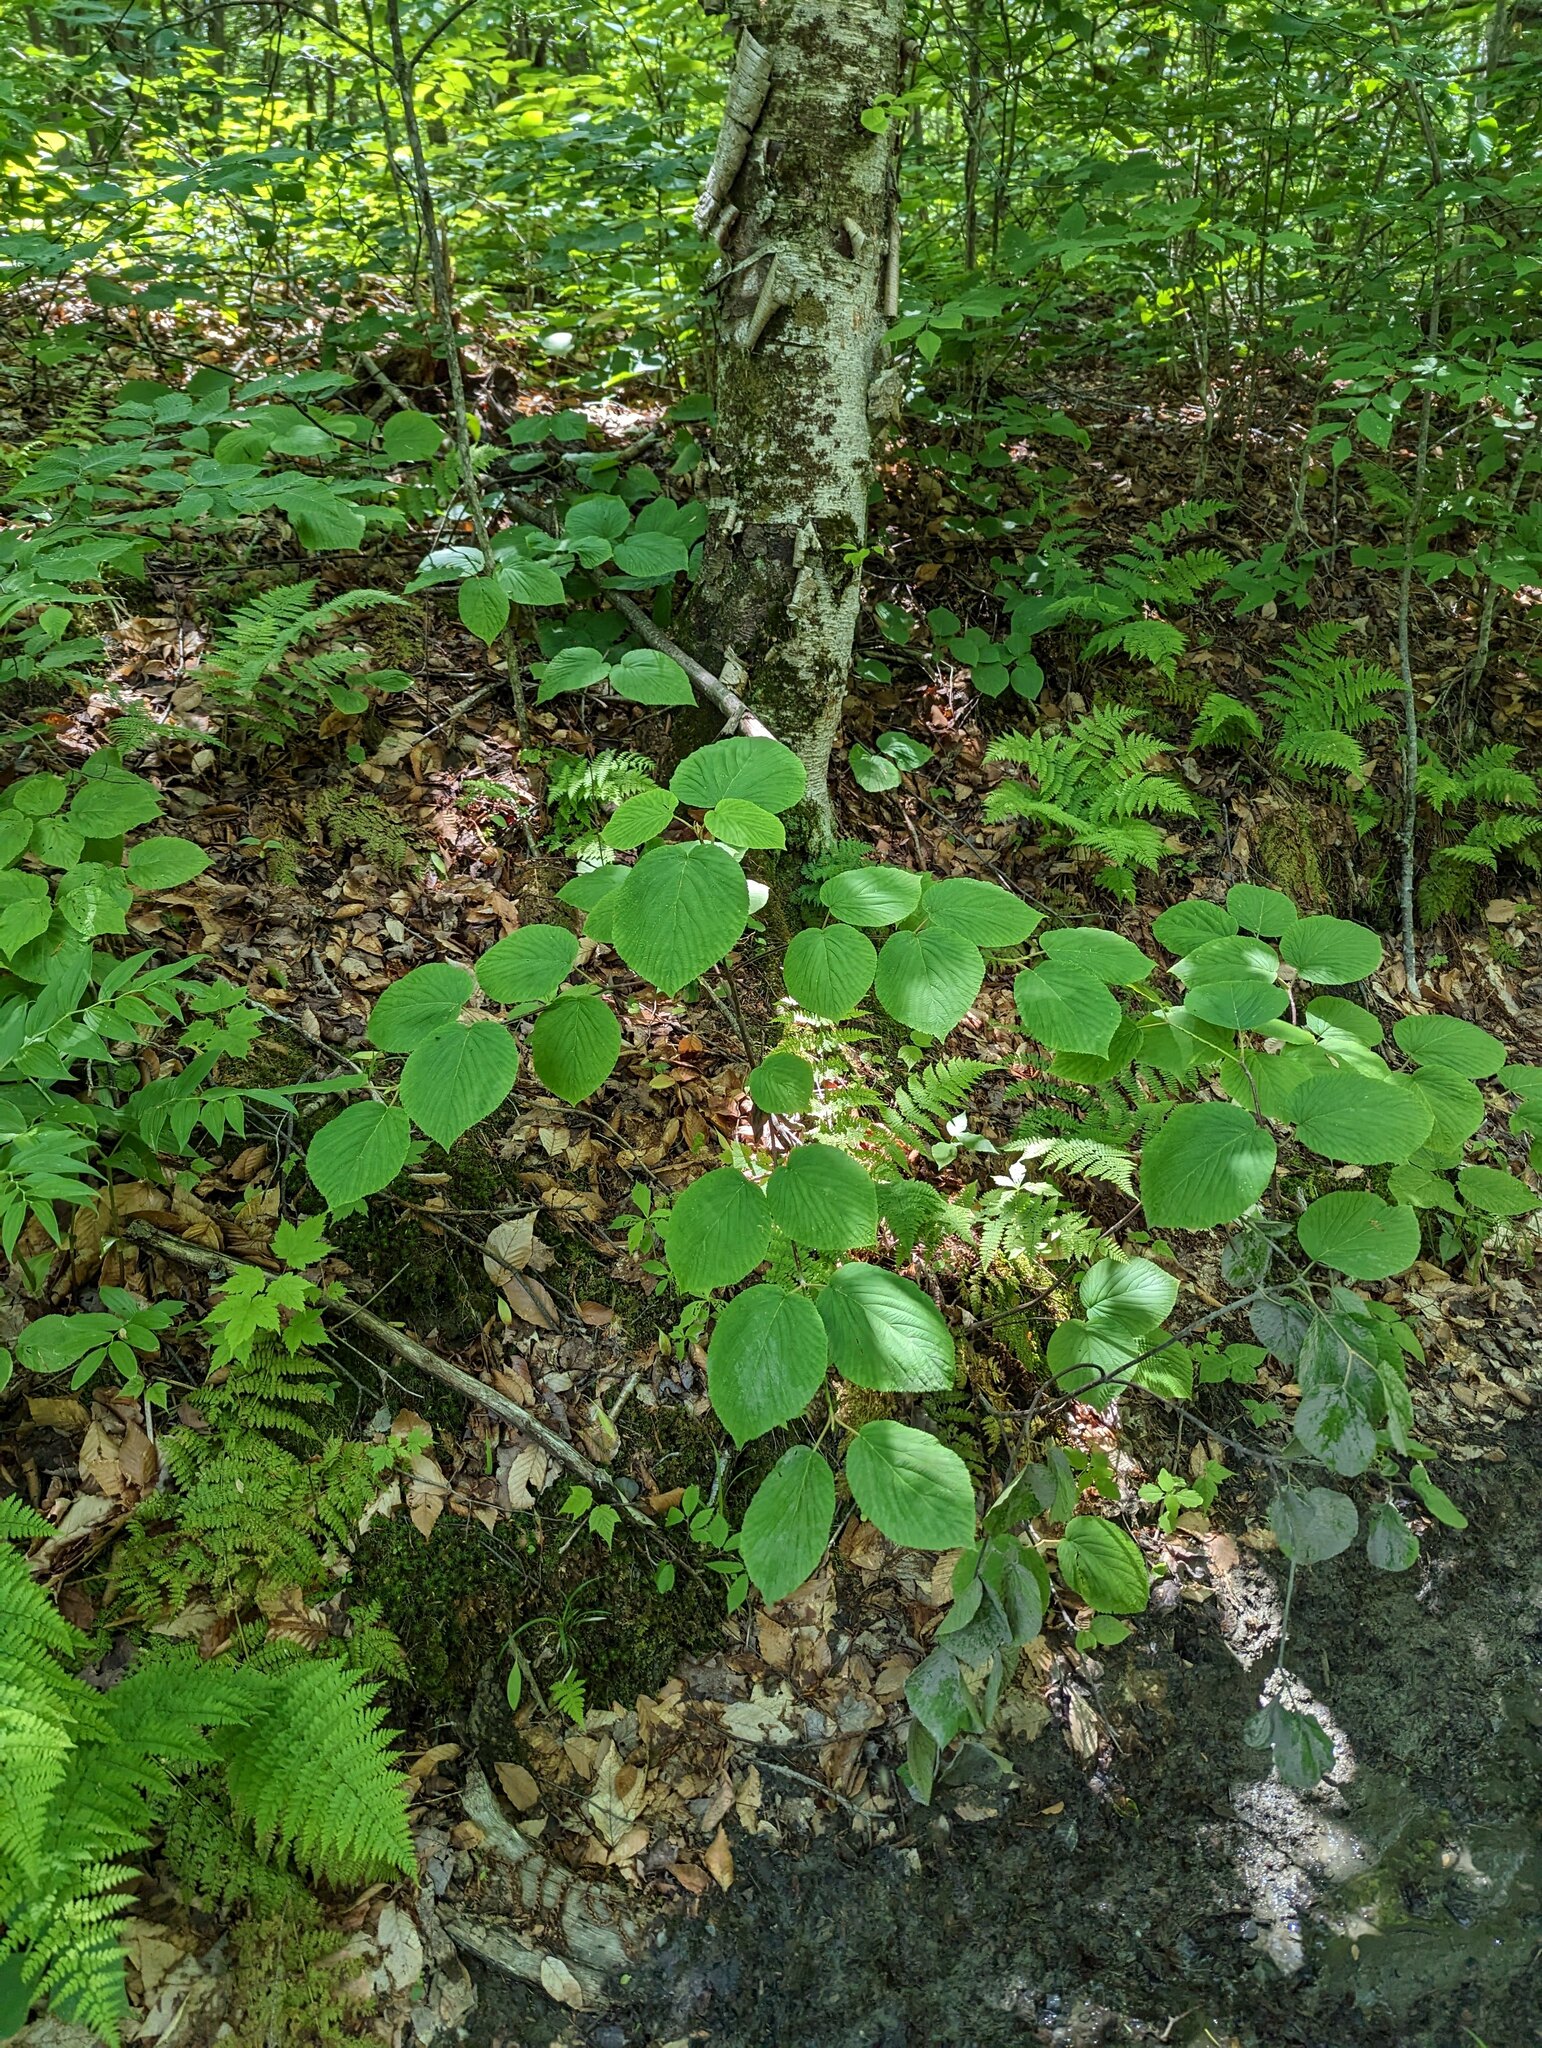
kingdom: Plantae
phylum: Tracheophyta
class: Magnoliopsida
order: Dipsacales
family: Viburnaceae
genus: Viburnum
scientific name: Viburnum lantanoides
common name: Hobblebush
